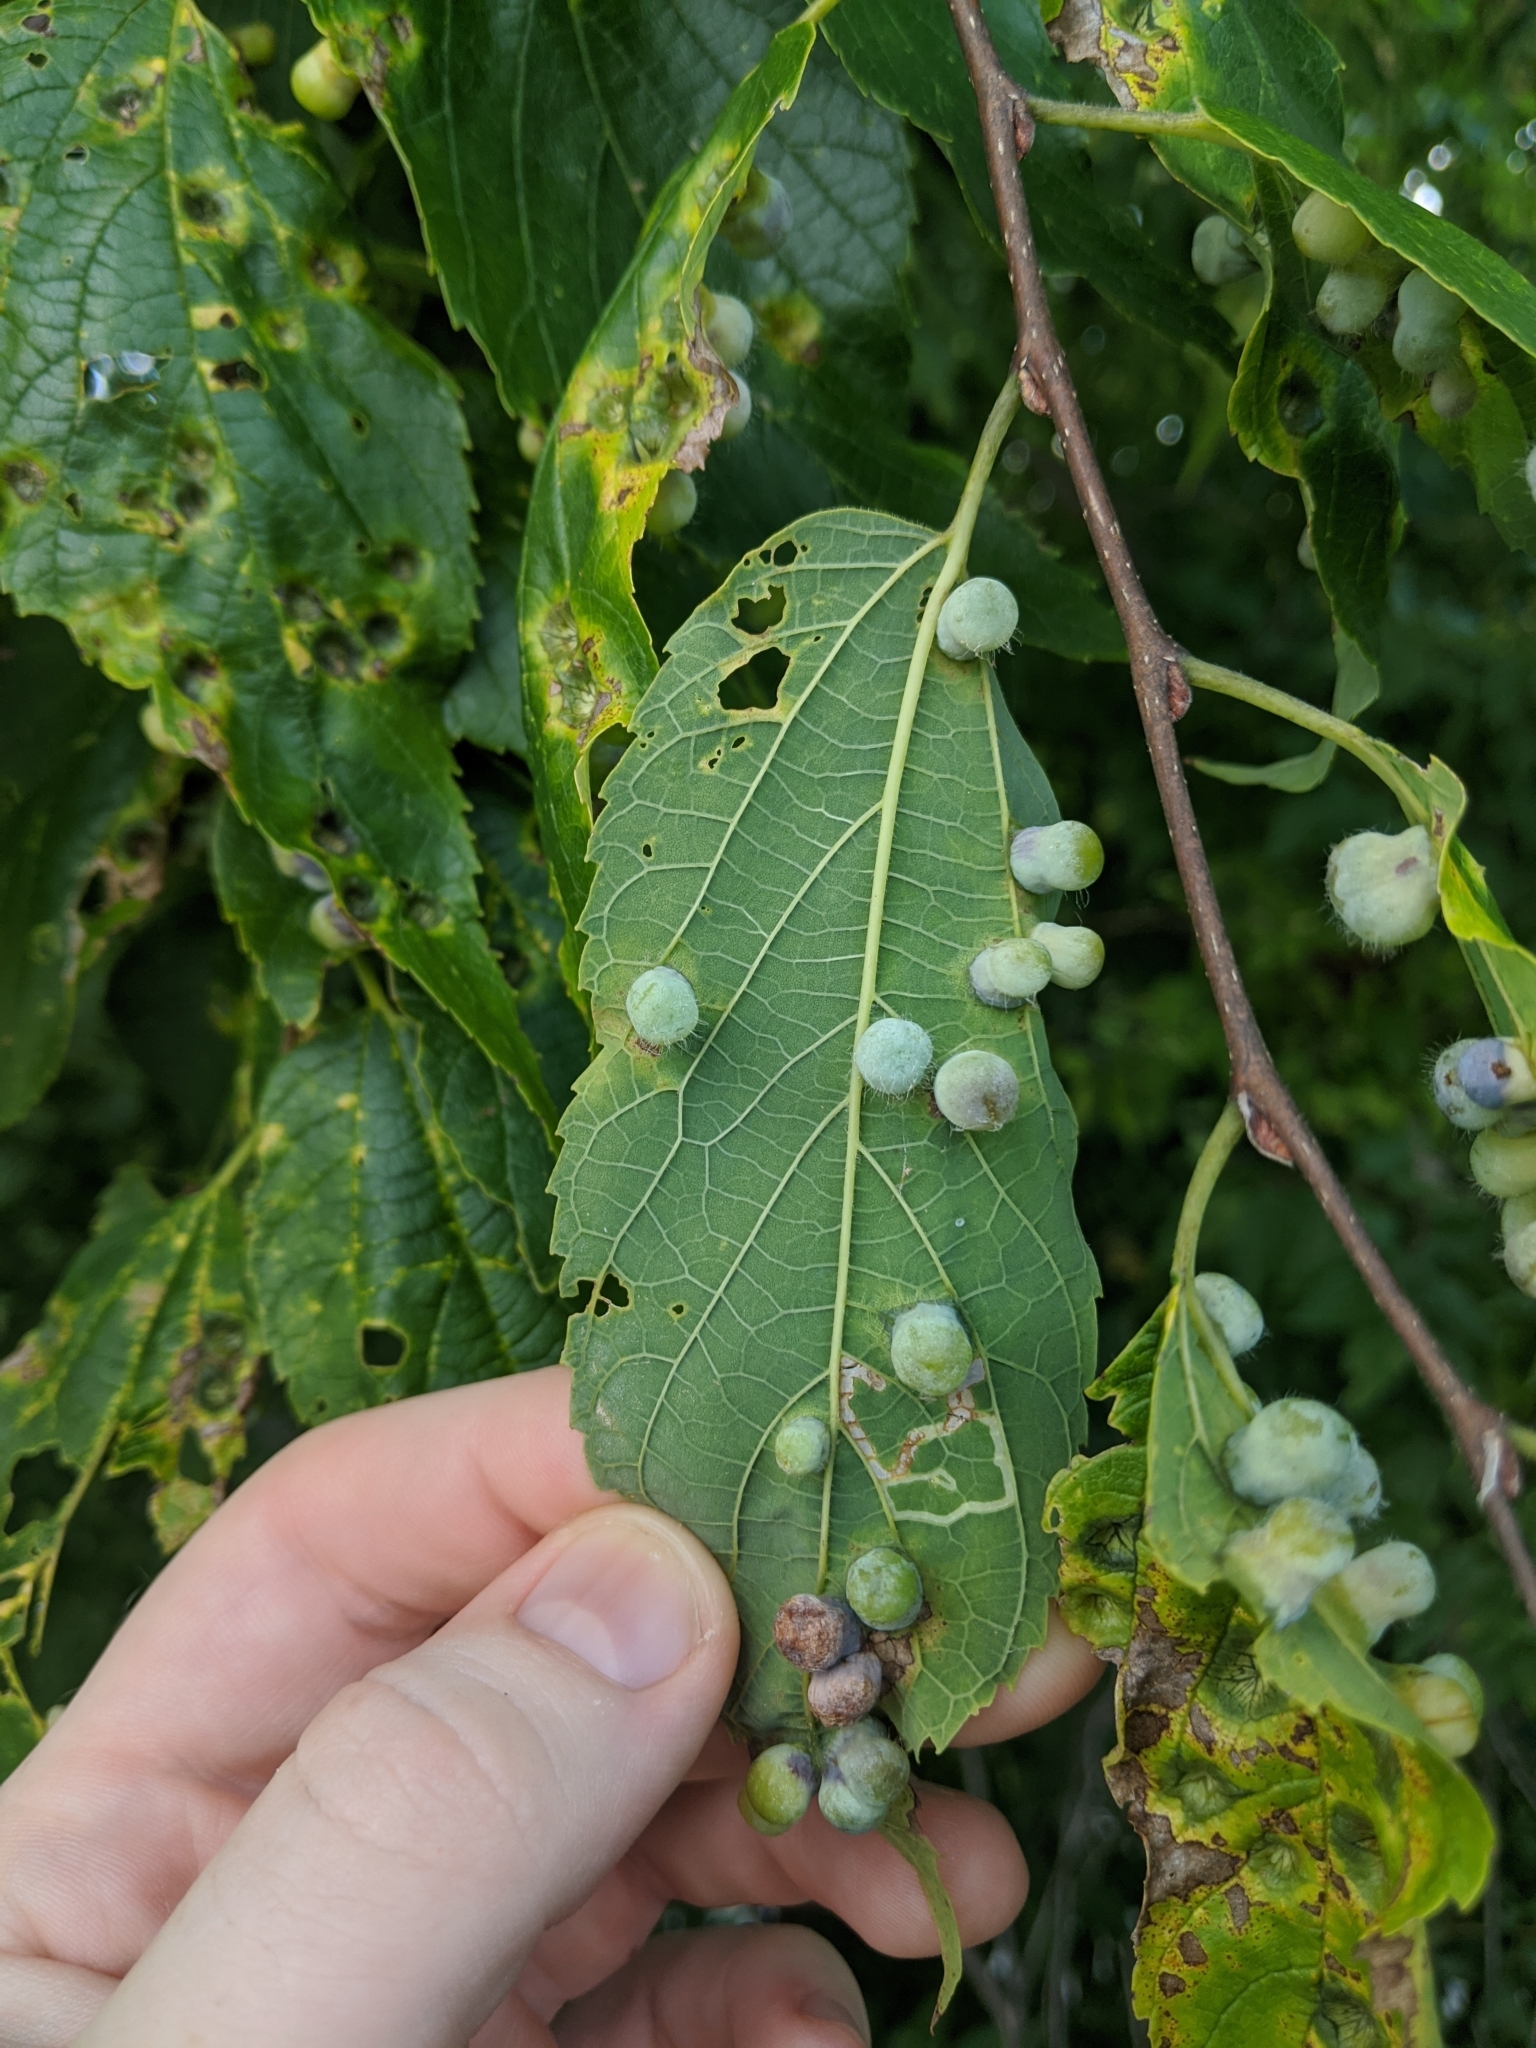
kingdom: Animalia
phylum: Arthropoda
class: Insecta
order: Hemiptera
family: Aphalaridae
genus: Pachypsylla
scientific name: Pachypsylla celtidismamma
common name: Hackberry nipplegall psyllid
